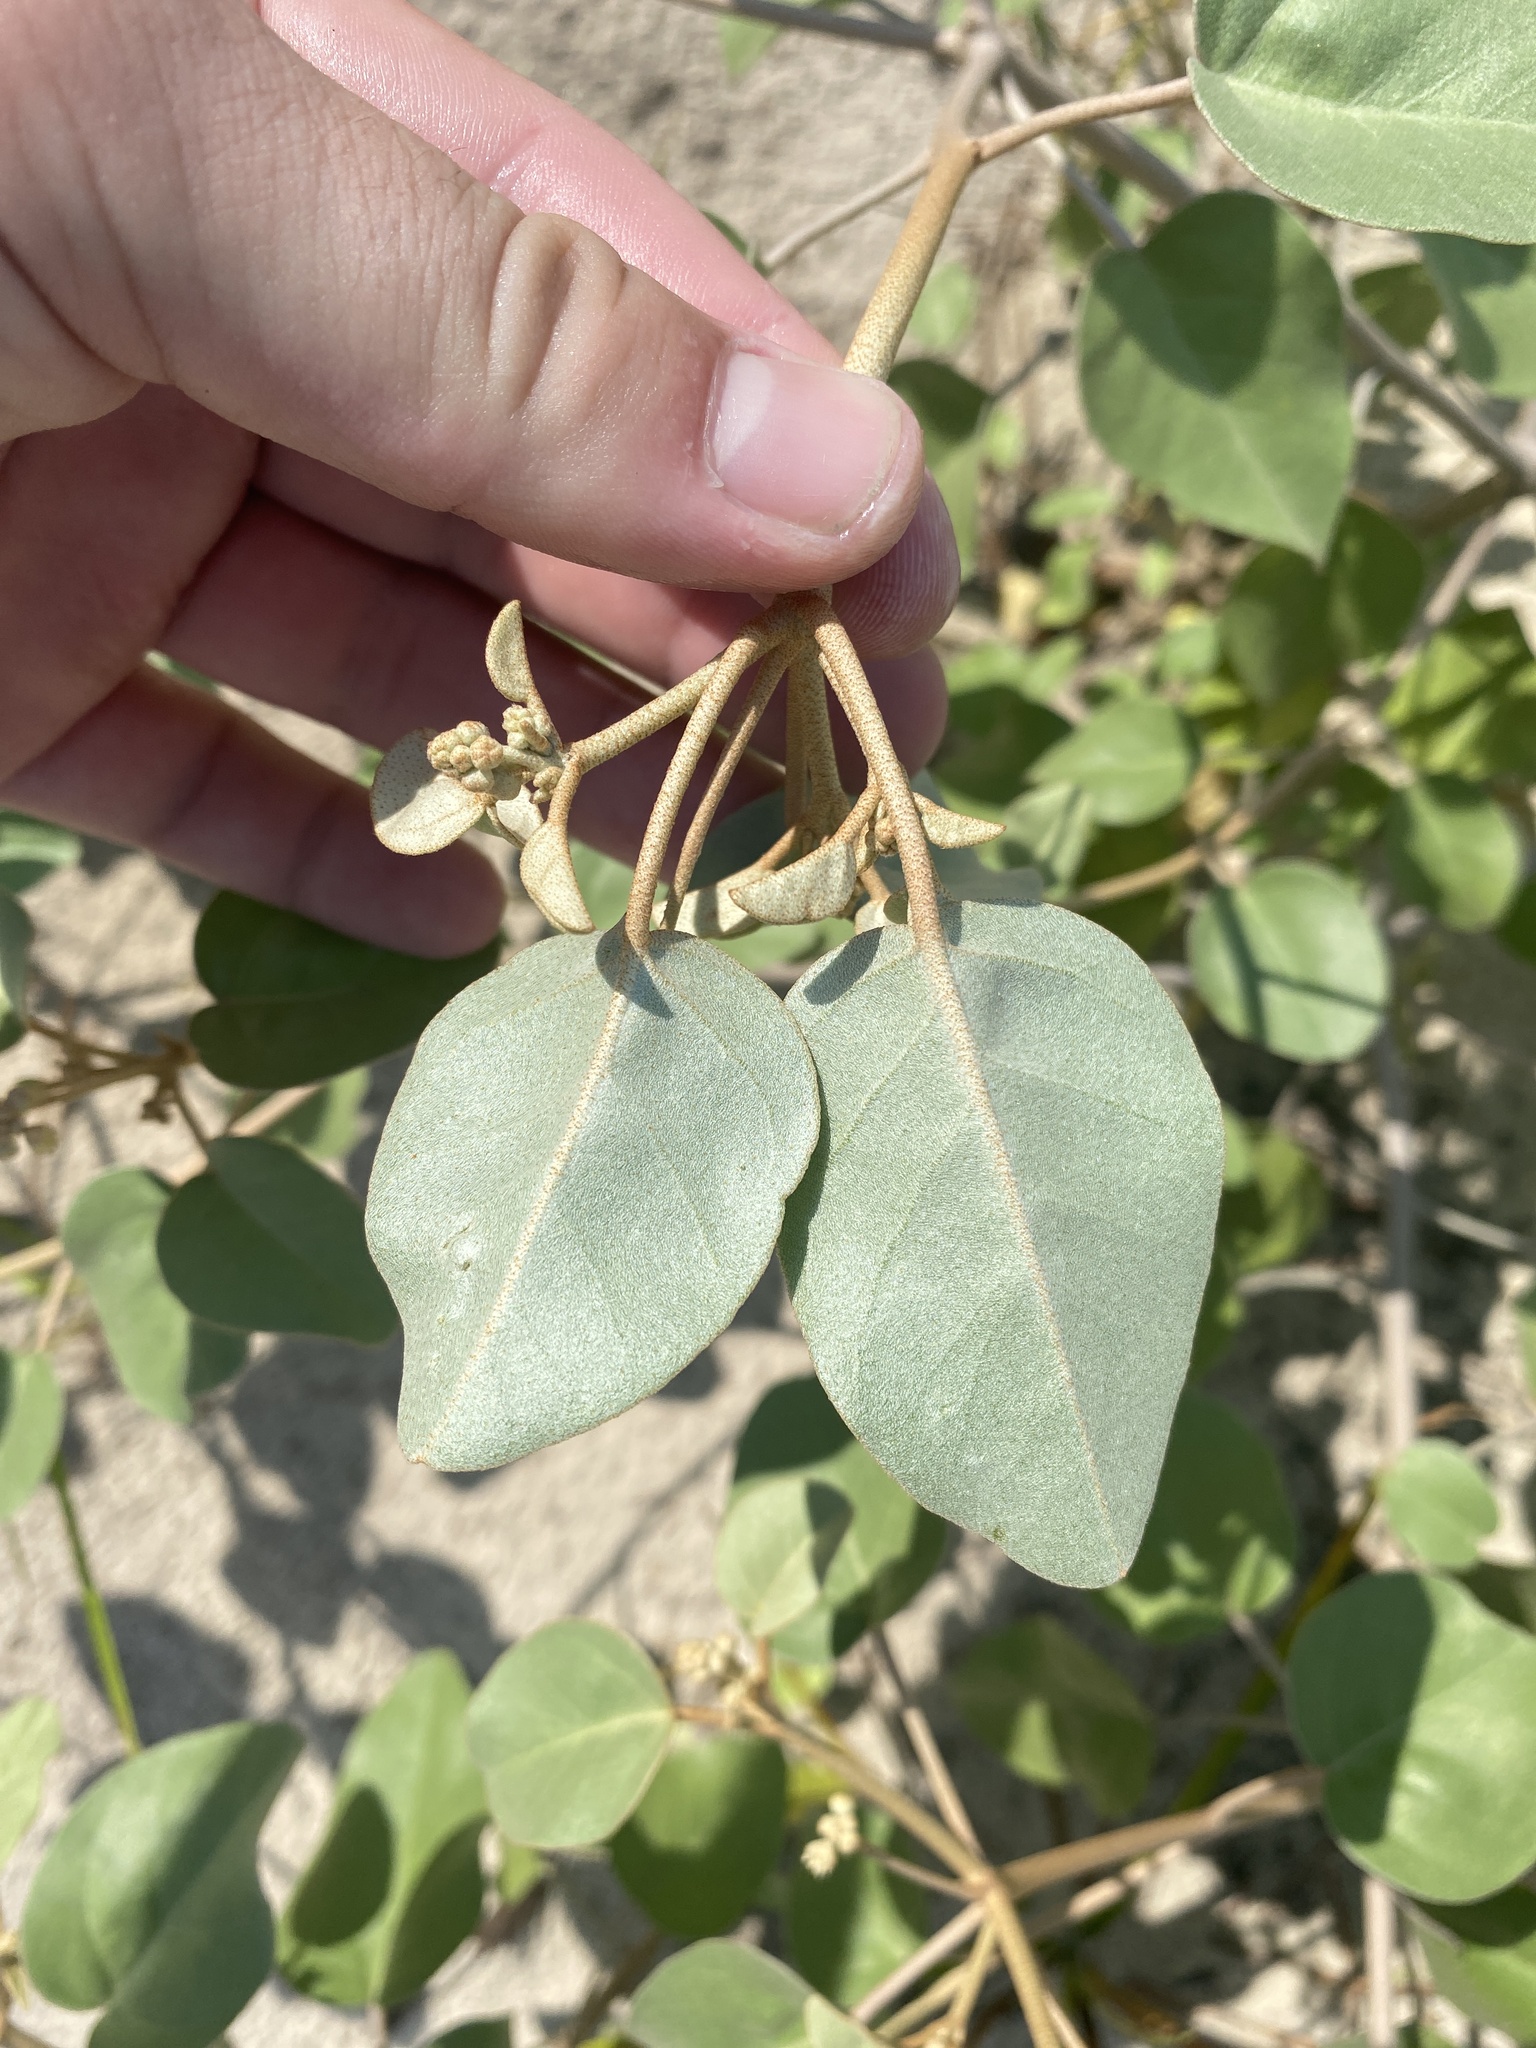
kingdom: Plantae
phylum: Tracheophyta
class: Magnoliopsida
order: Malpighiales
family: Euphorbiaceae
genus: Croton
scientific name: Croton punctatus
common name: Beach-tea
